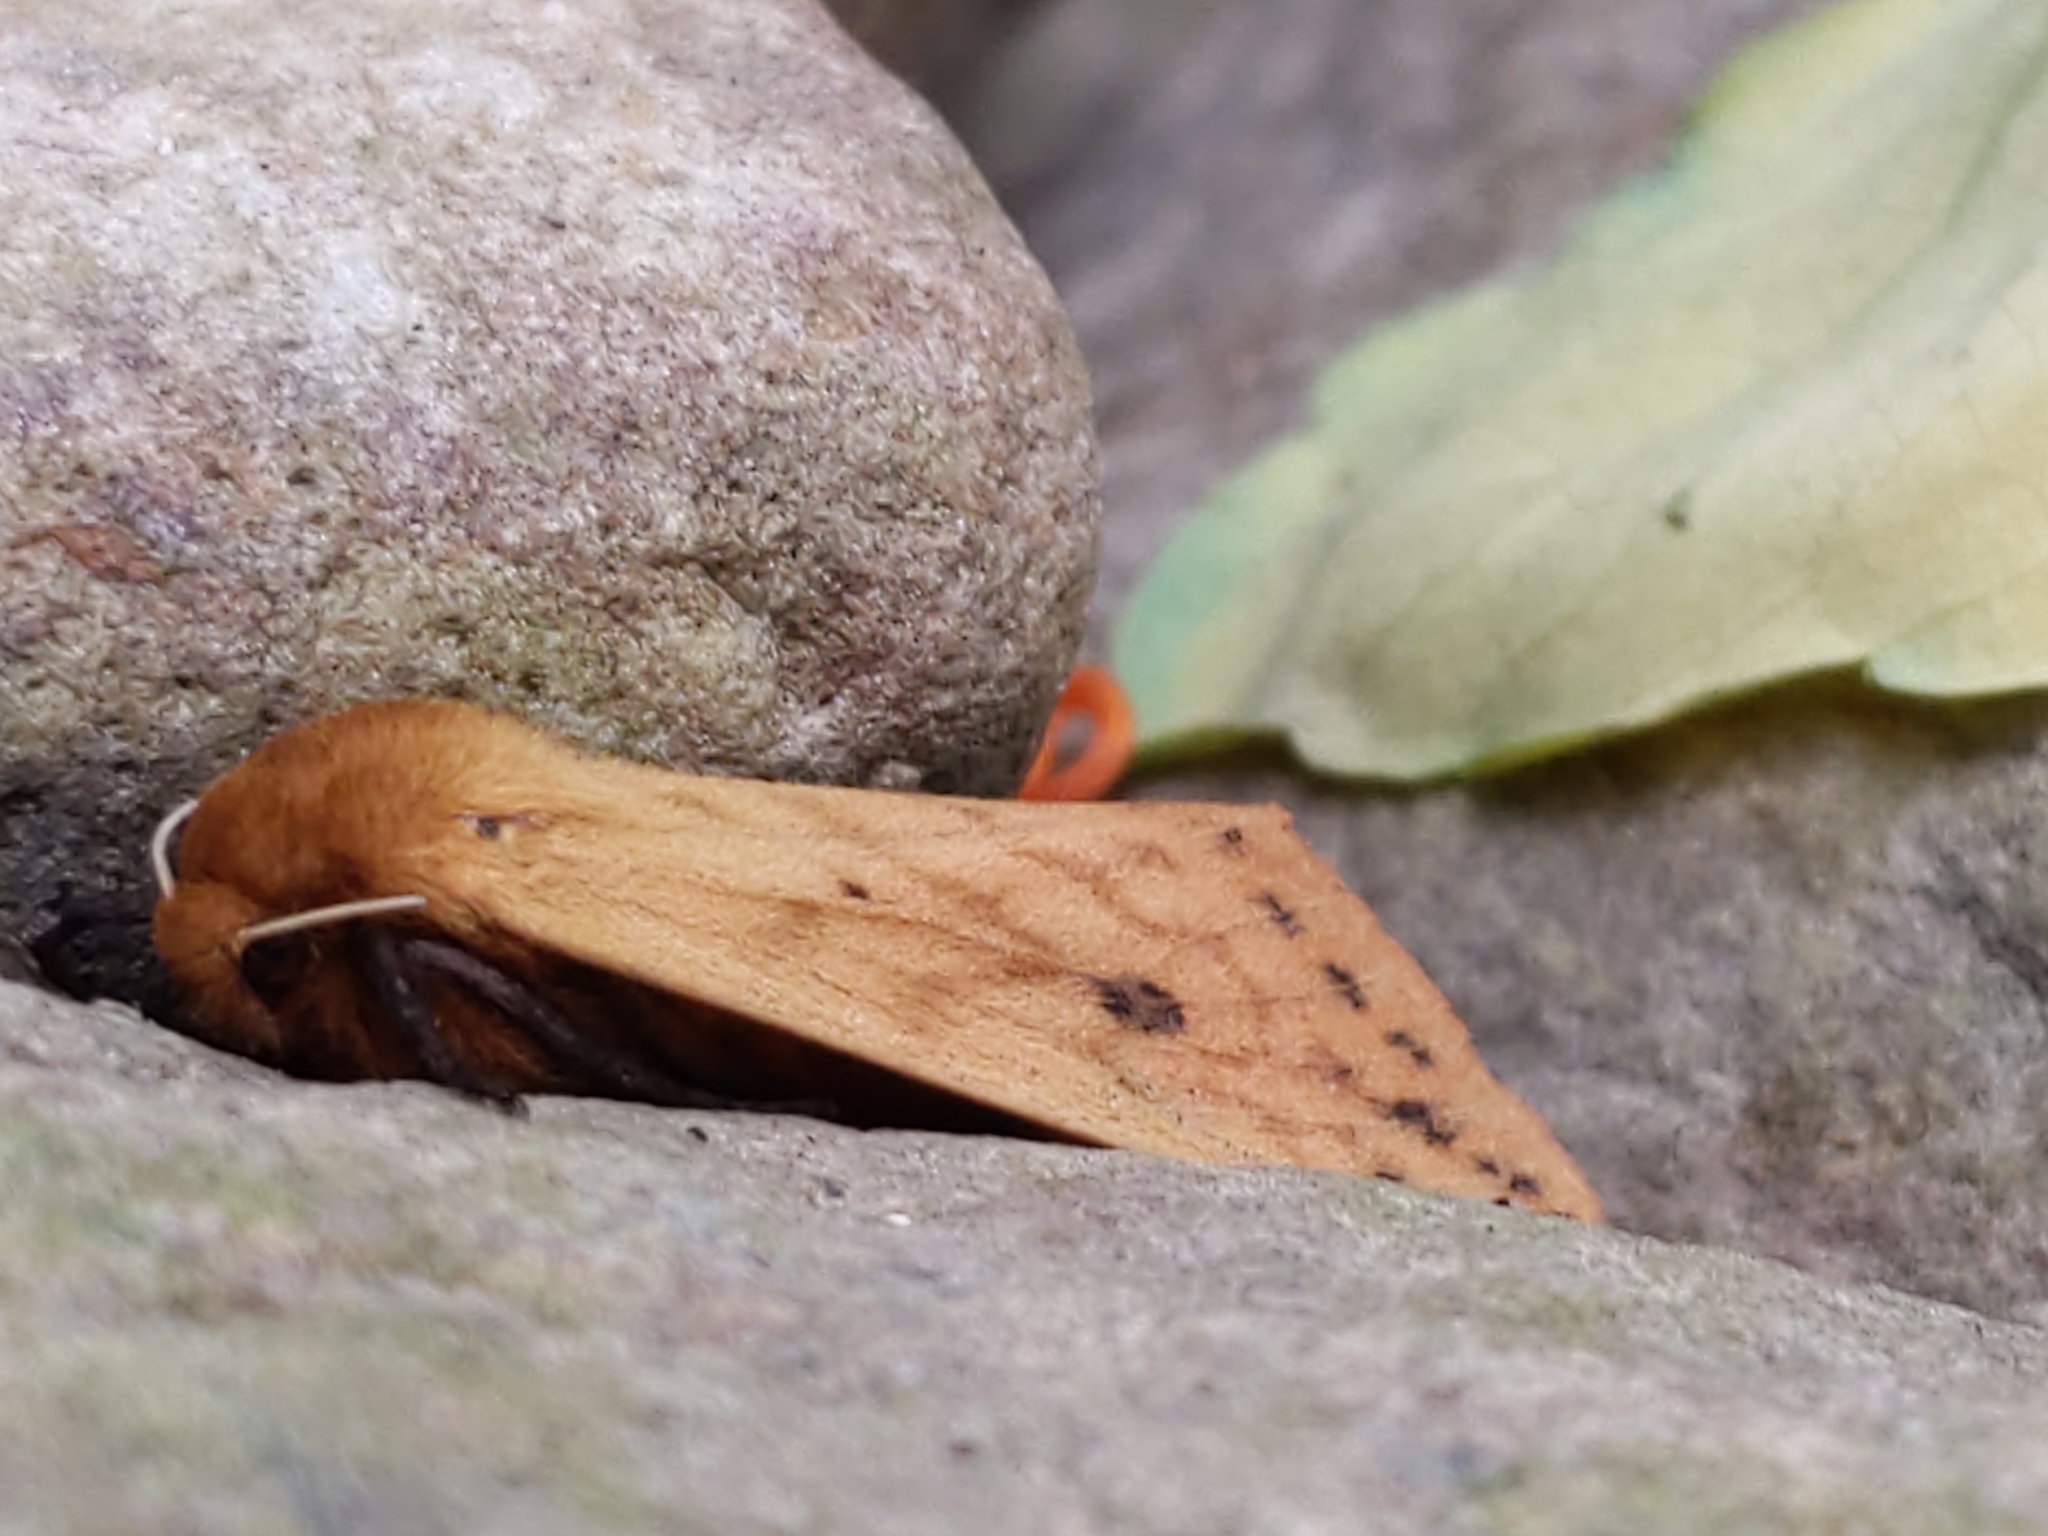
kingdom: Animalia
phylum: Arthropoda
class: Insecta
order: Lepidoptera
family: Erebidae
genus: Pyrrharctia
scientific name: Pyrrharctia isabella
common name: Isabella tiger moth
